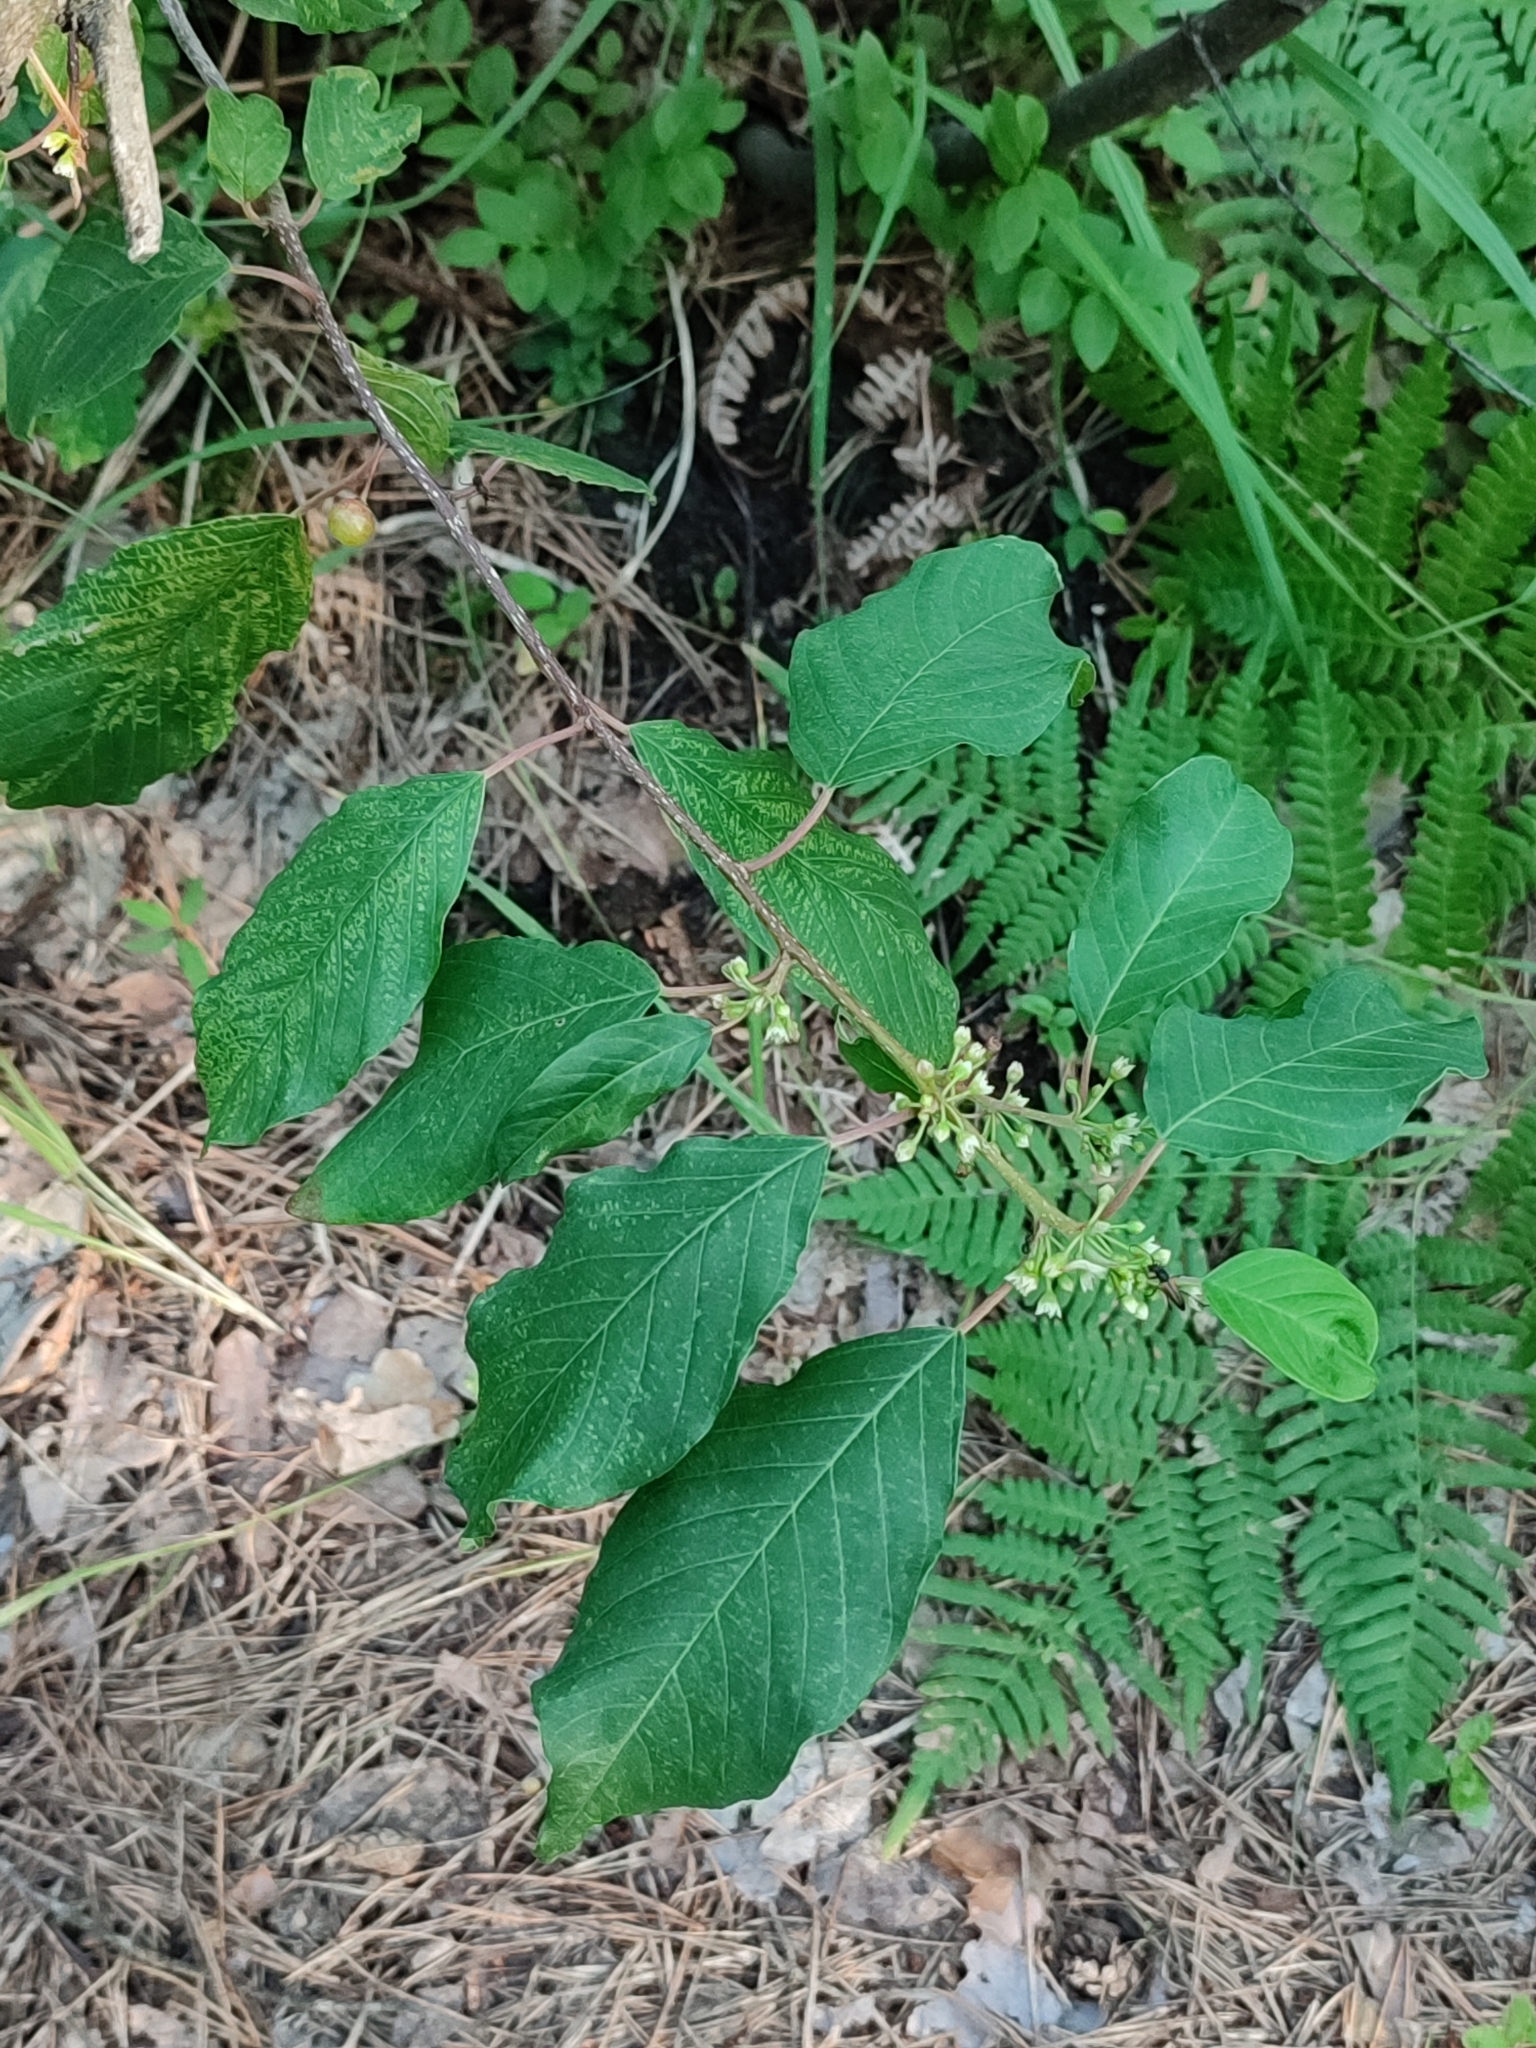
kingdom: Plantae
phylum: Tracheophyta
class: Magnoliopsida
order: Rosales
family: Rhamnaceae
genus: Frangula
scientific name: Frangula alnus
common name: Alder buckthorn
